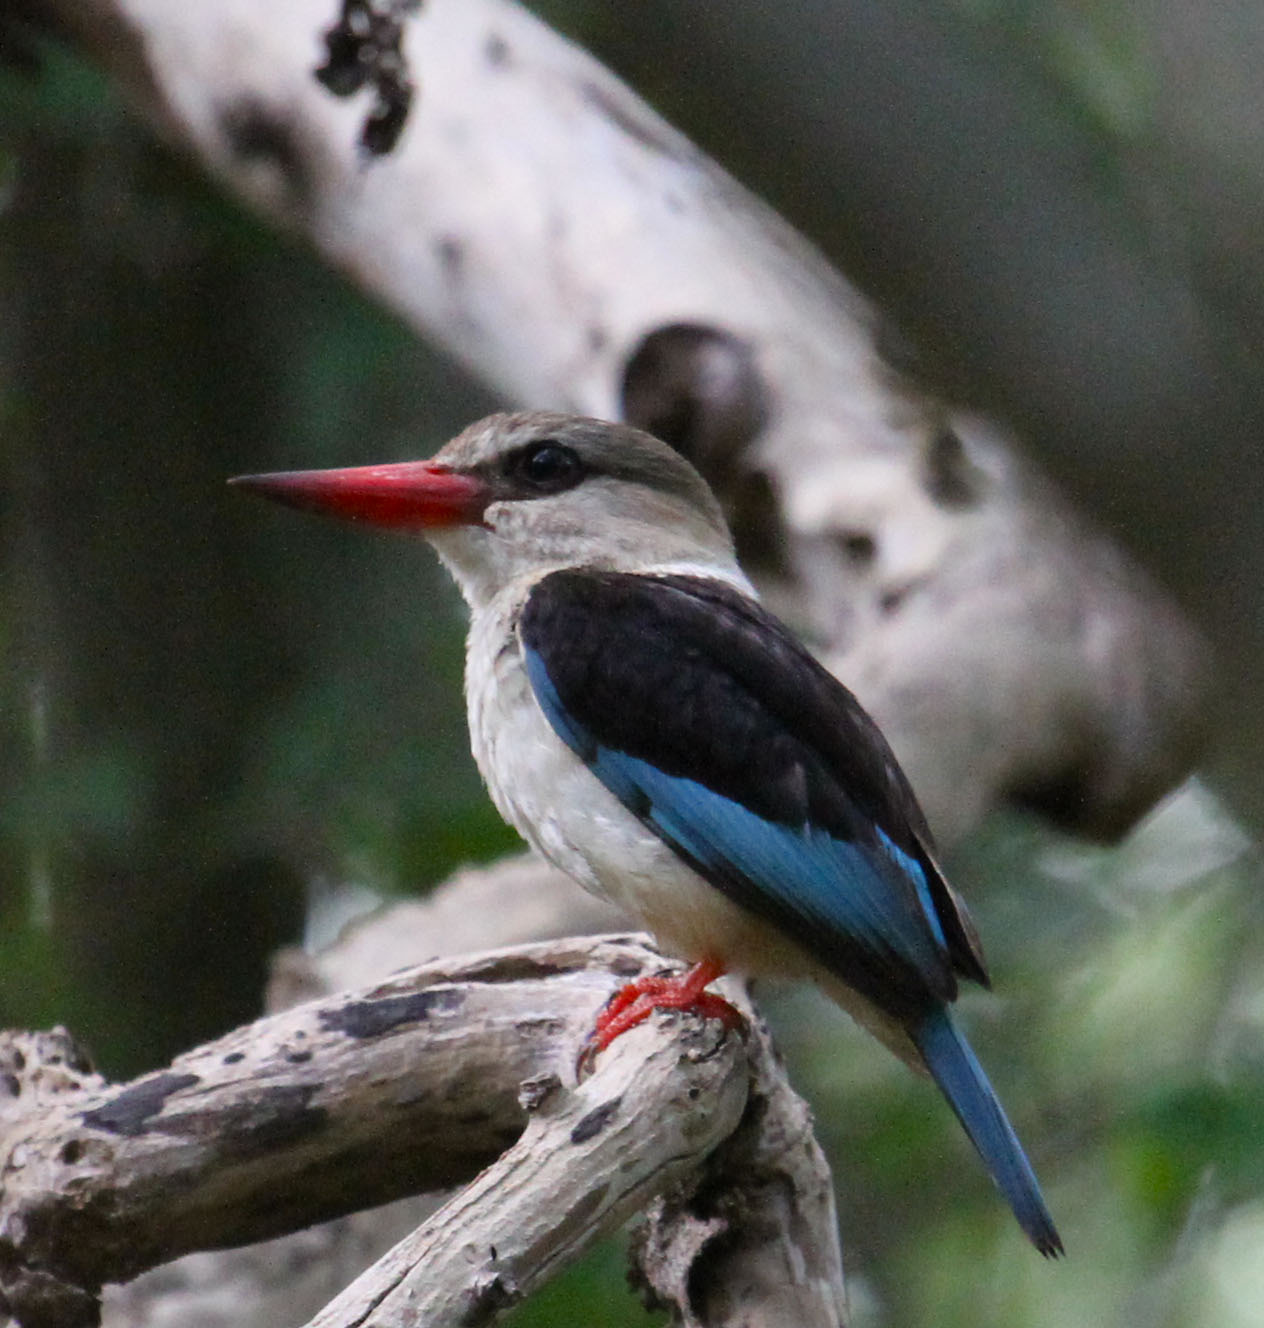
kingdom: Animalia
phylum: Chordata
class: Aves
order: Coraciiformes
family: Alcedinidae
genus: Halcyon
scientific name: Halcyon albiventris
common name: Brown-hooded kingfisher
